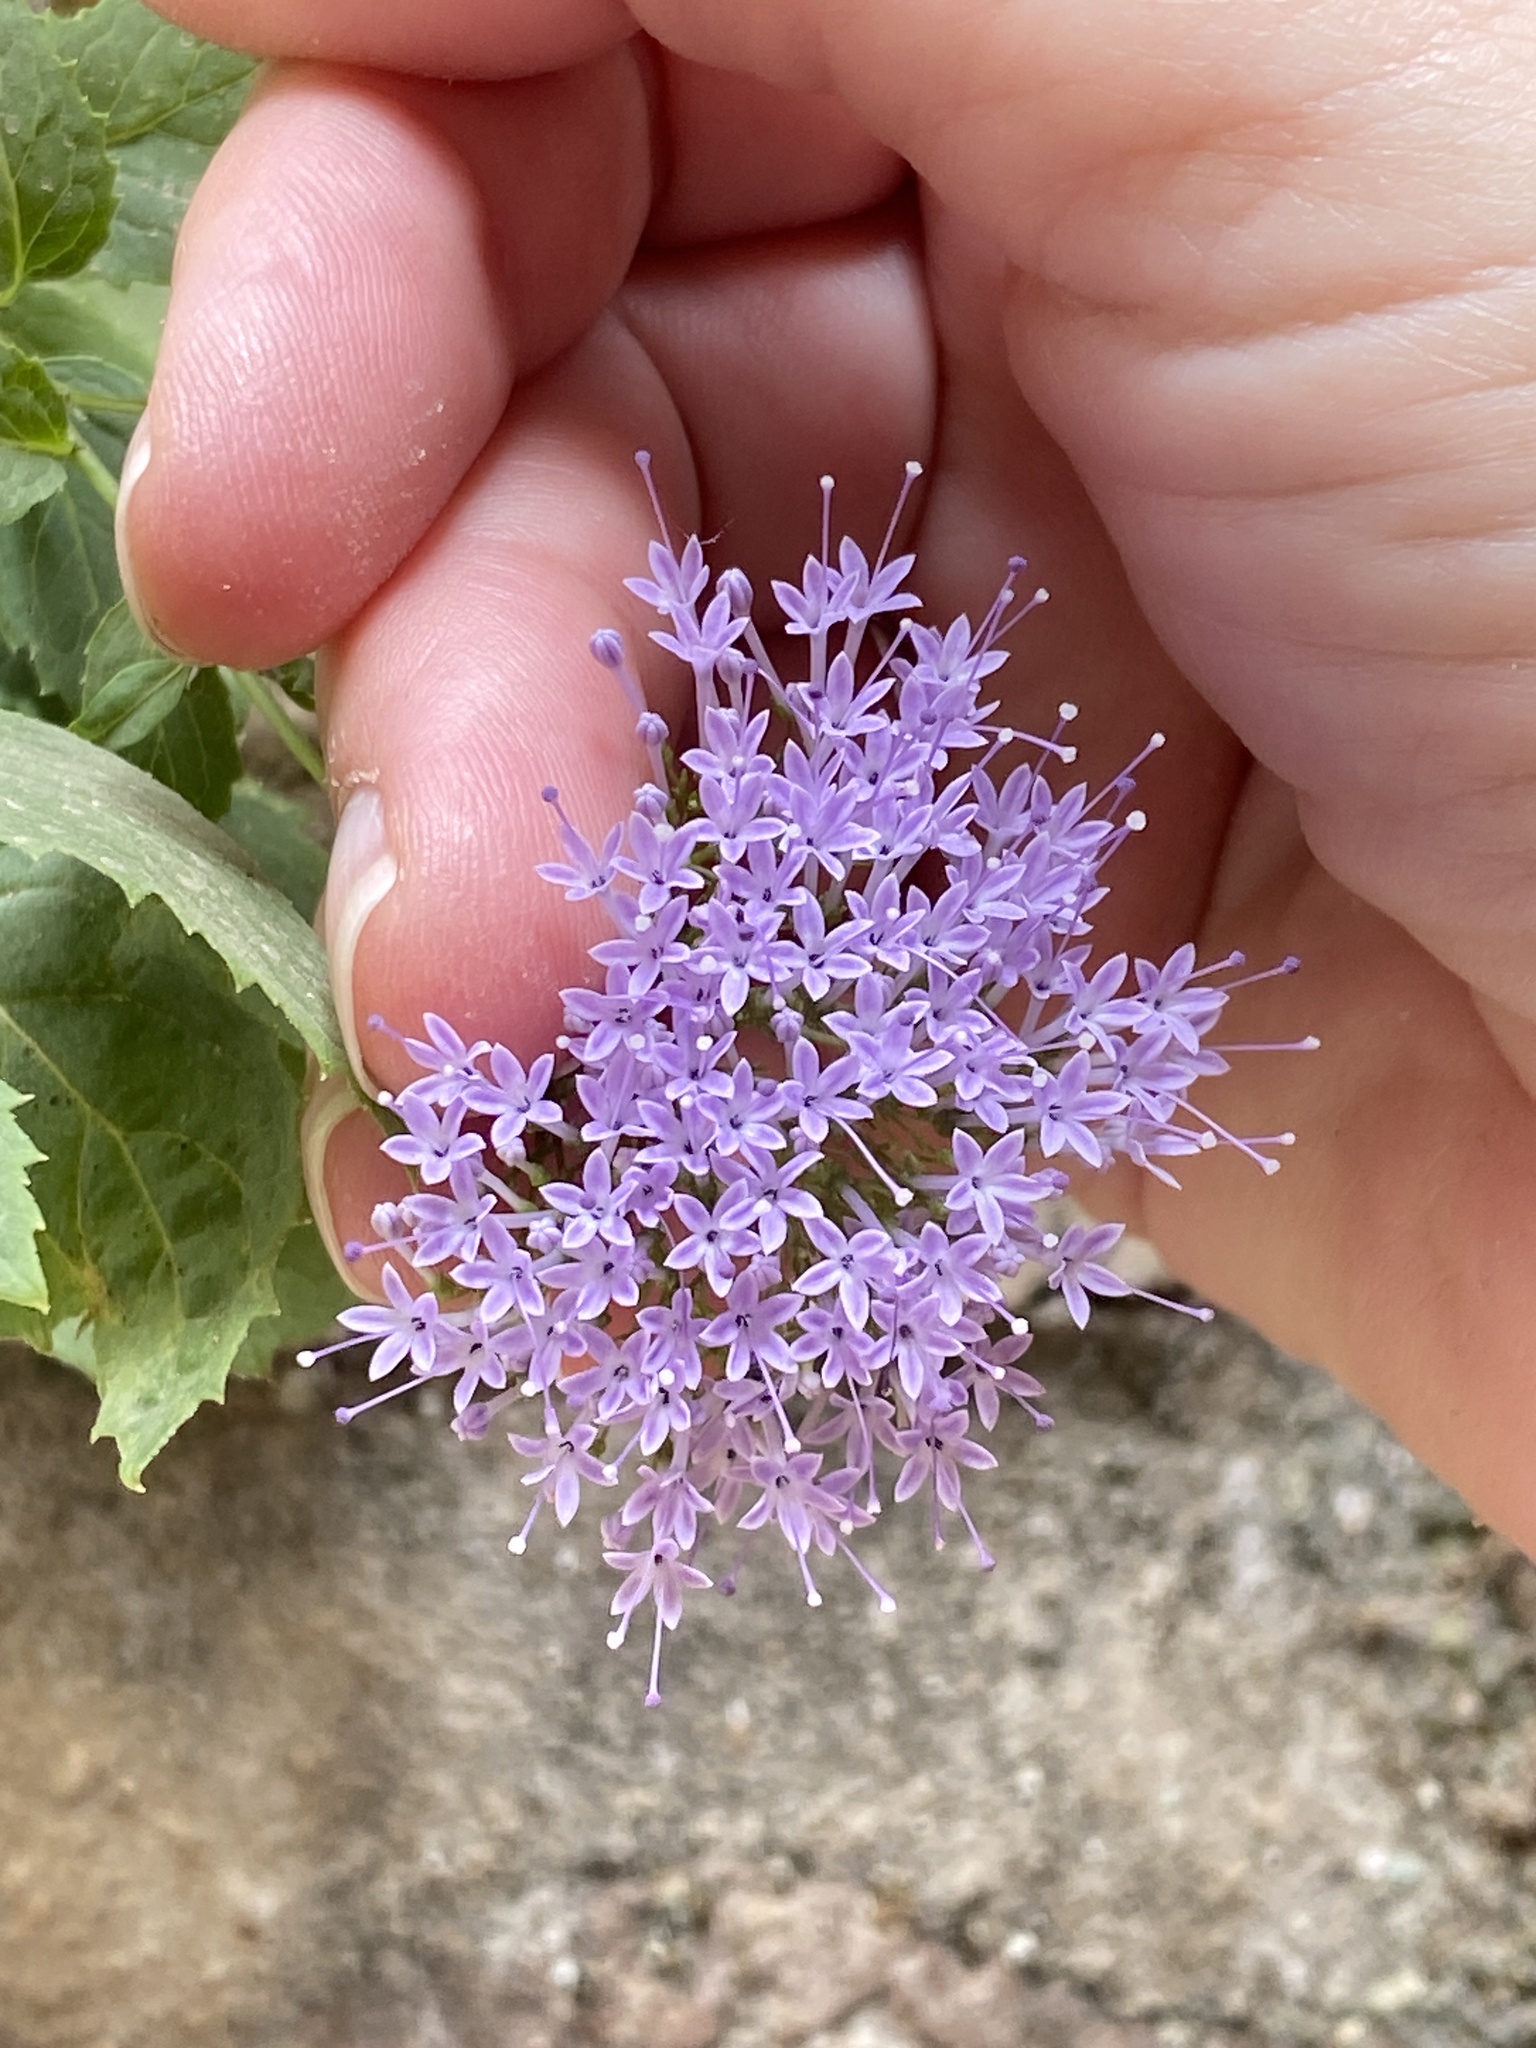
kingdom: Plantae
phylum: Tracheophyta
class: Magnoliopsida
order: Asterales
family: Campanulaceae
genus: Trachelium
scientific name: Trachelium caeruleum
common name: Throatwort
